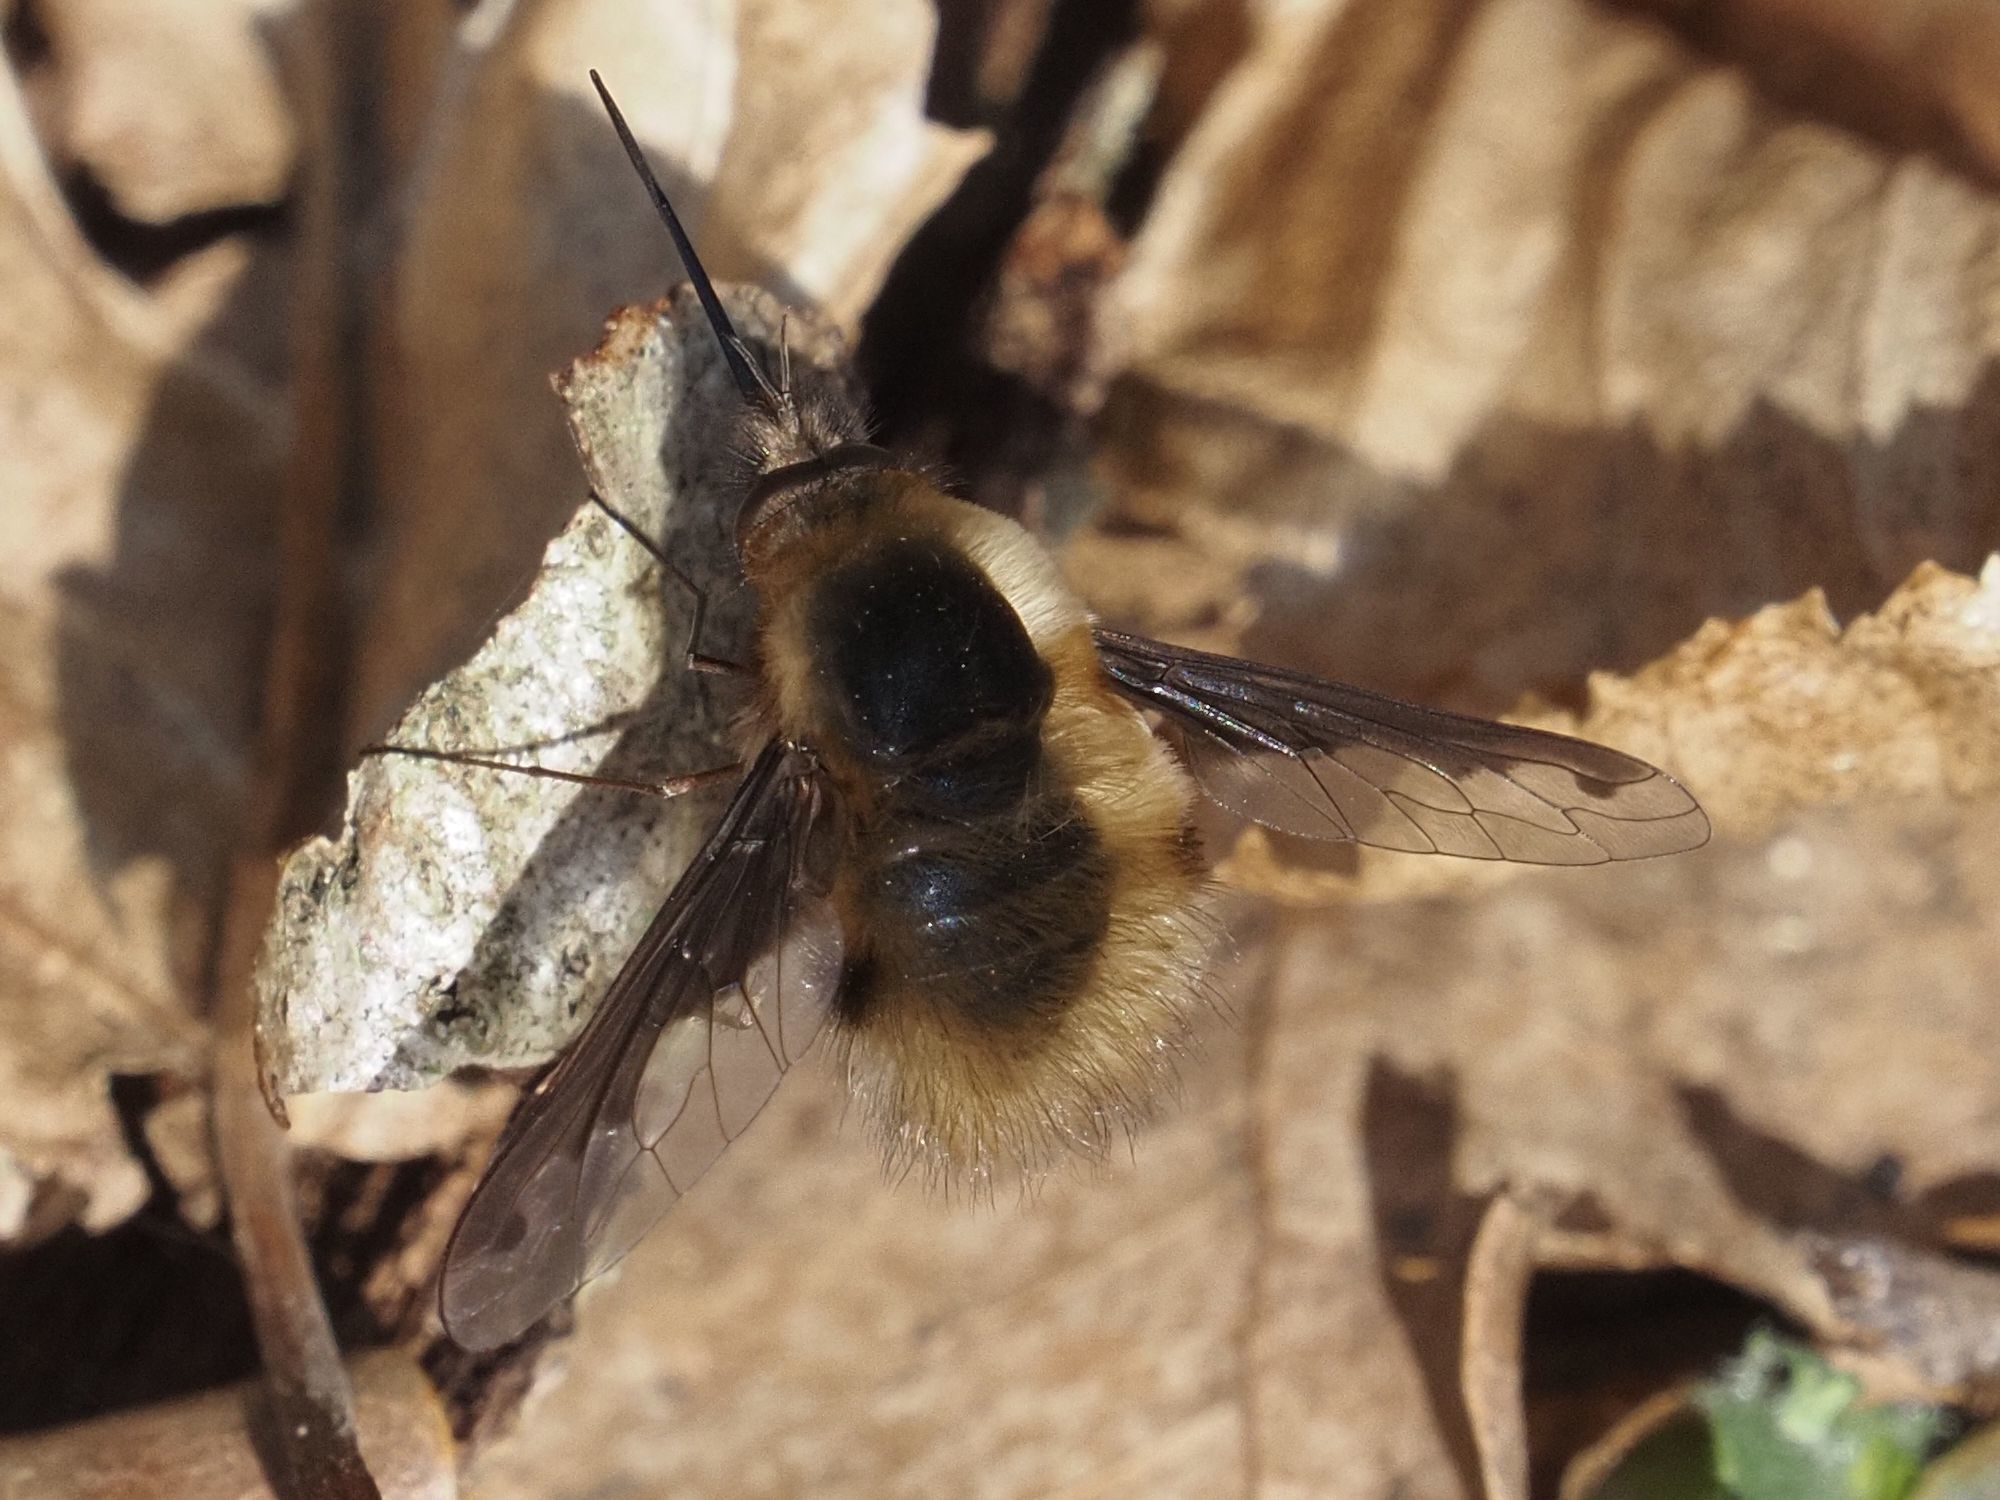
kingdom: Animalia
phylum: Arthropoda
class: Insecta
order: Diptera
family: Bombyliidae
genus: Bombylius
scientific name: Bombylius major
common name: Bee fly
